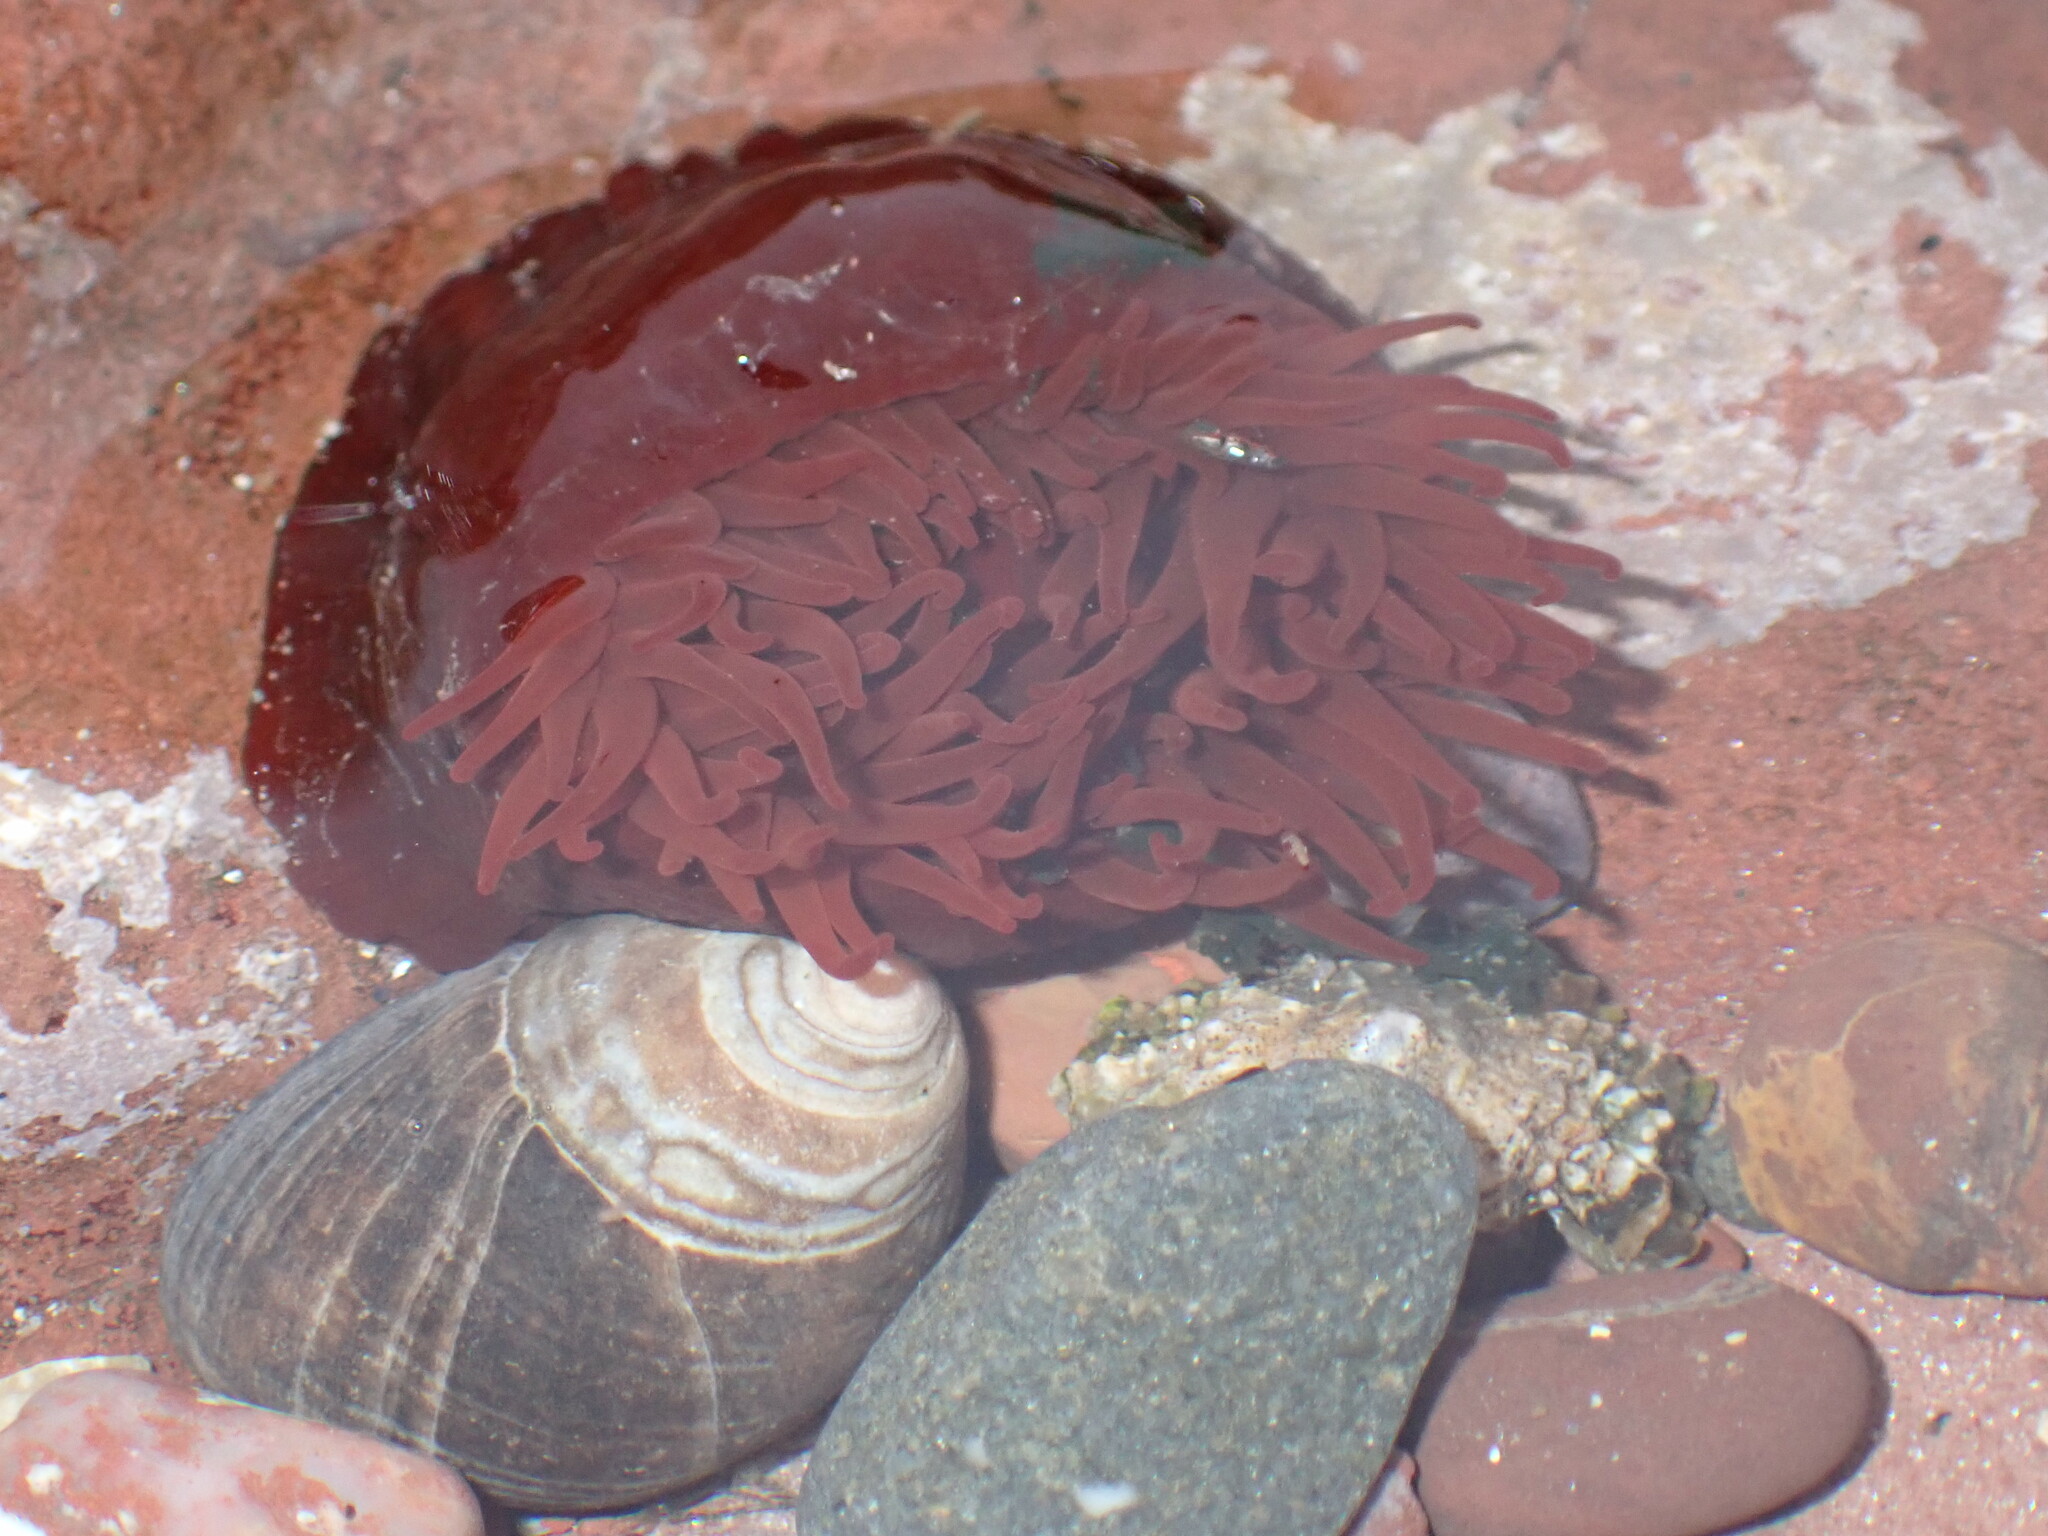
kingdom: Animalia
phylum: Cnidaria
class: Anthozoa
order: Actiniaria
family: Actiniidae
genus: Actinia
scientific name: Actinia equina
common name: Beadlet anemone
